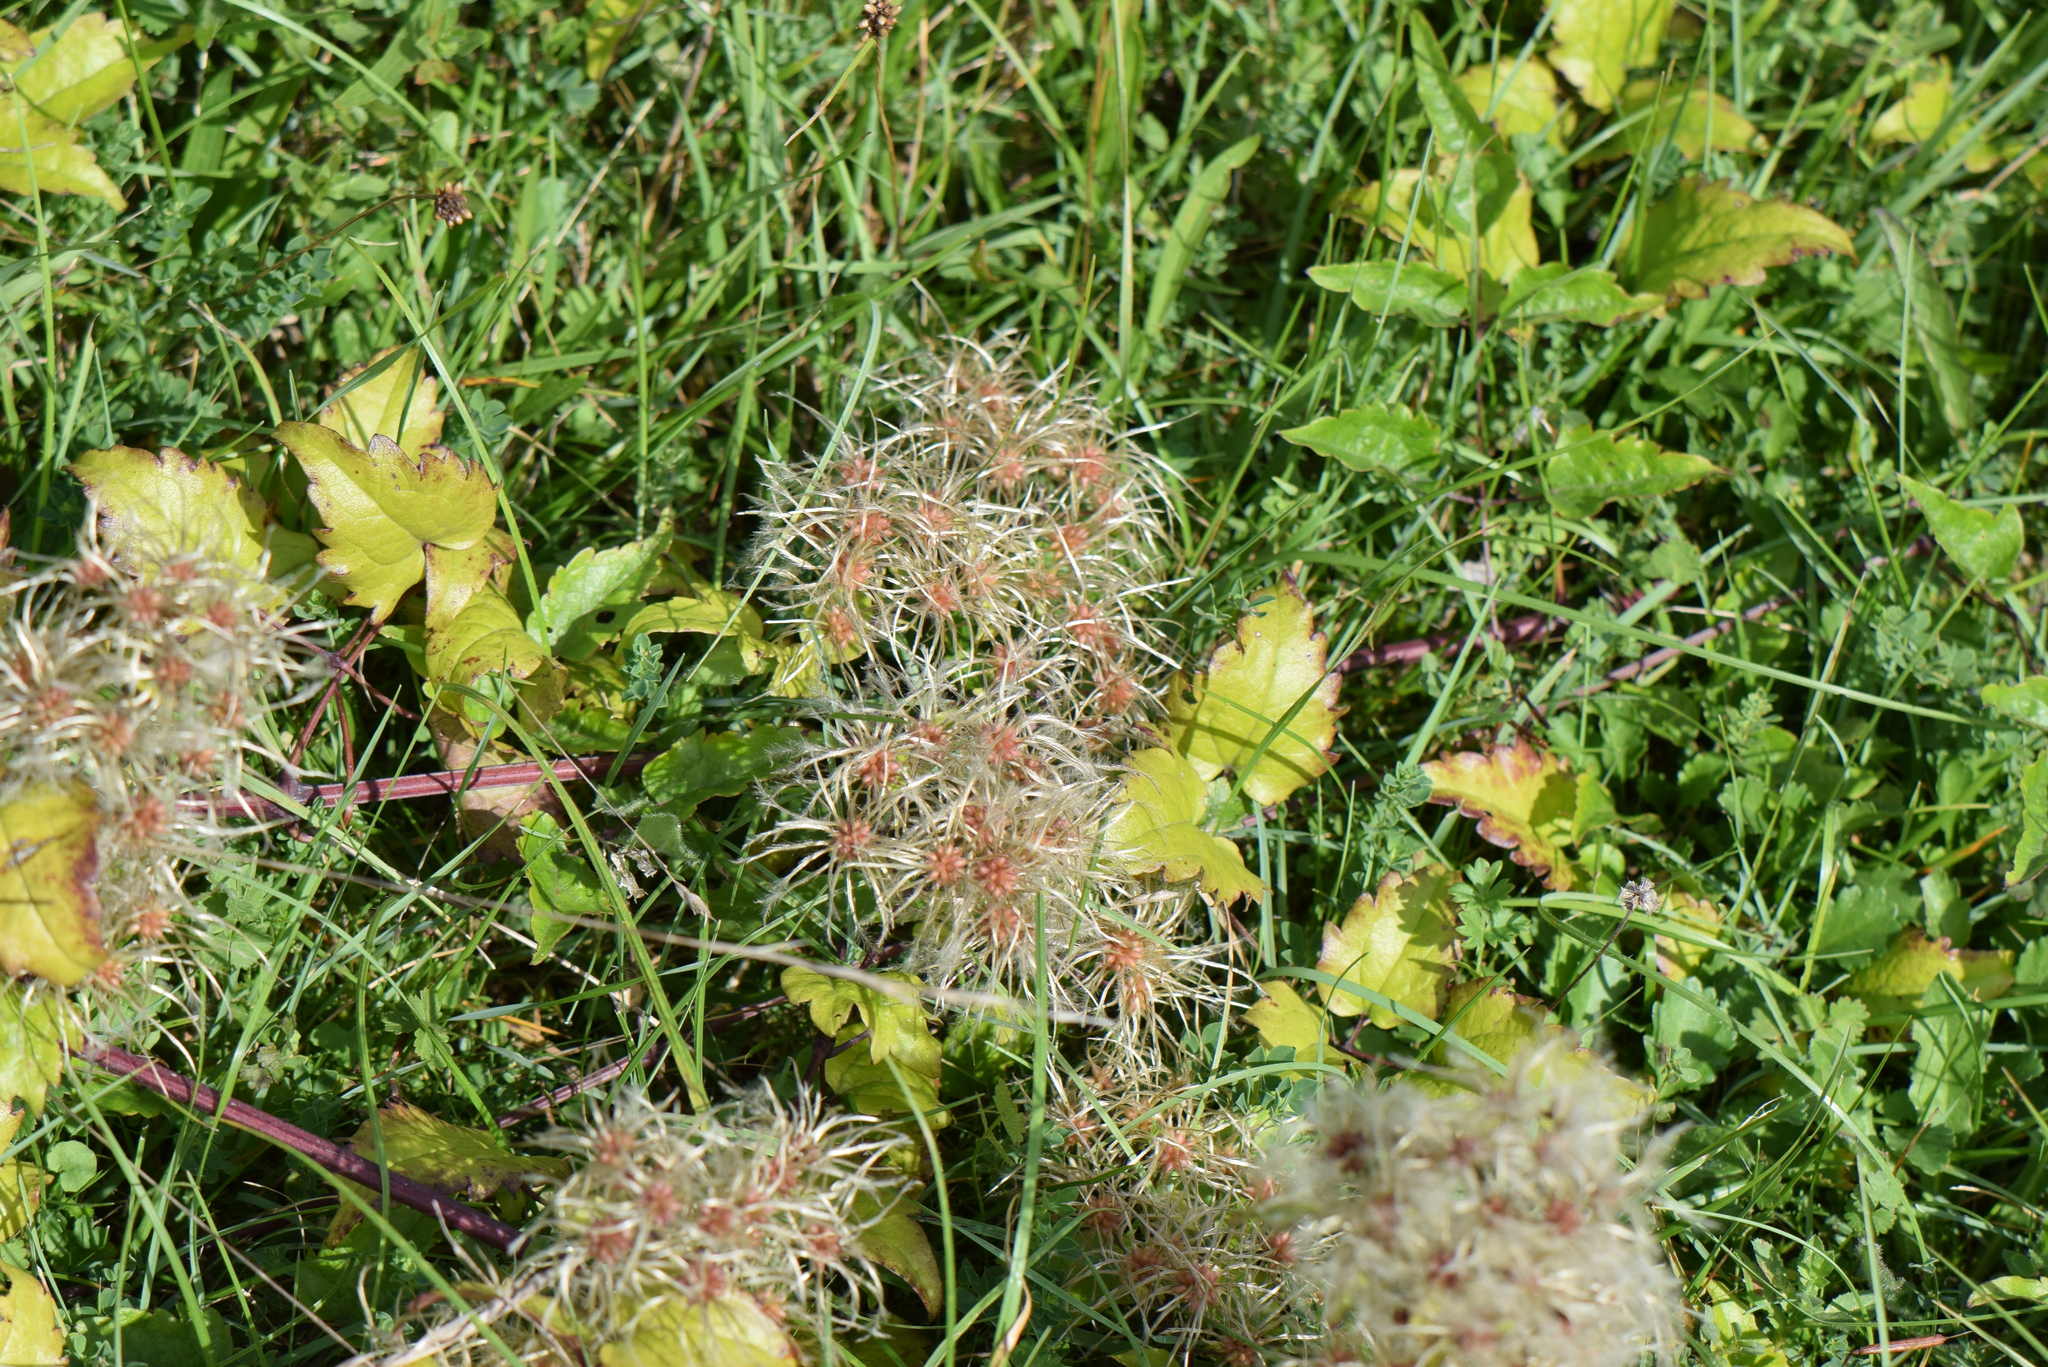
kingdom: Plantae
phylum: Tracheophyta
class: Magnoliopsida
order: Ranunculales
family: Ranunculaceae
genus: Clematis
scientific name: Clematis vitalba
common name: Evergreen clematis
